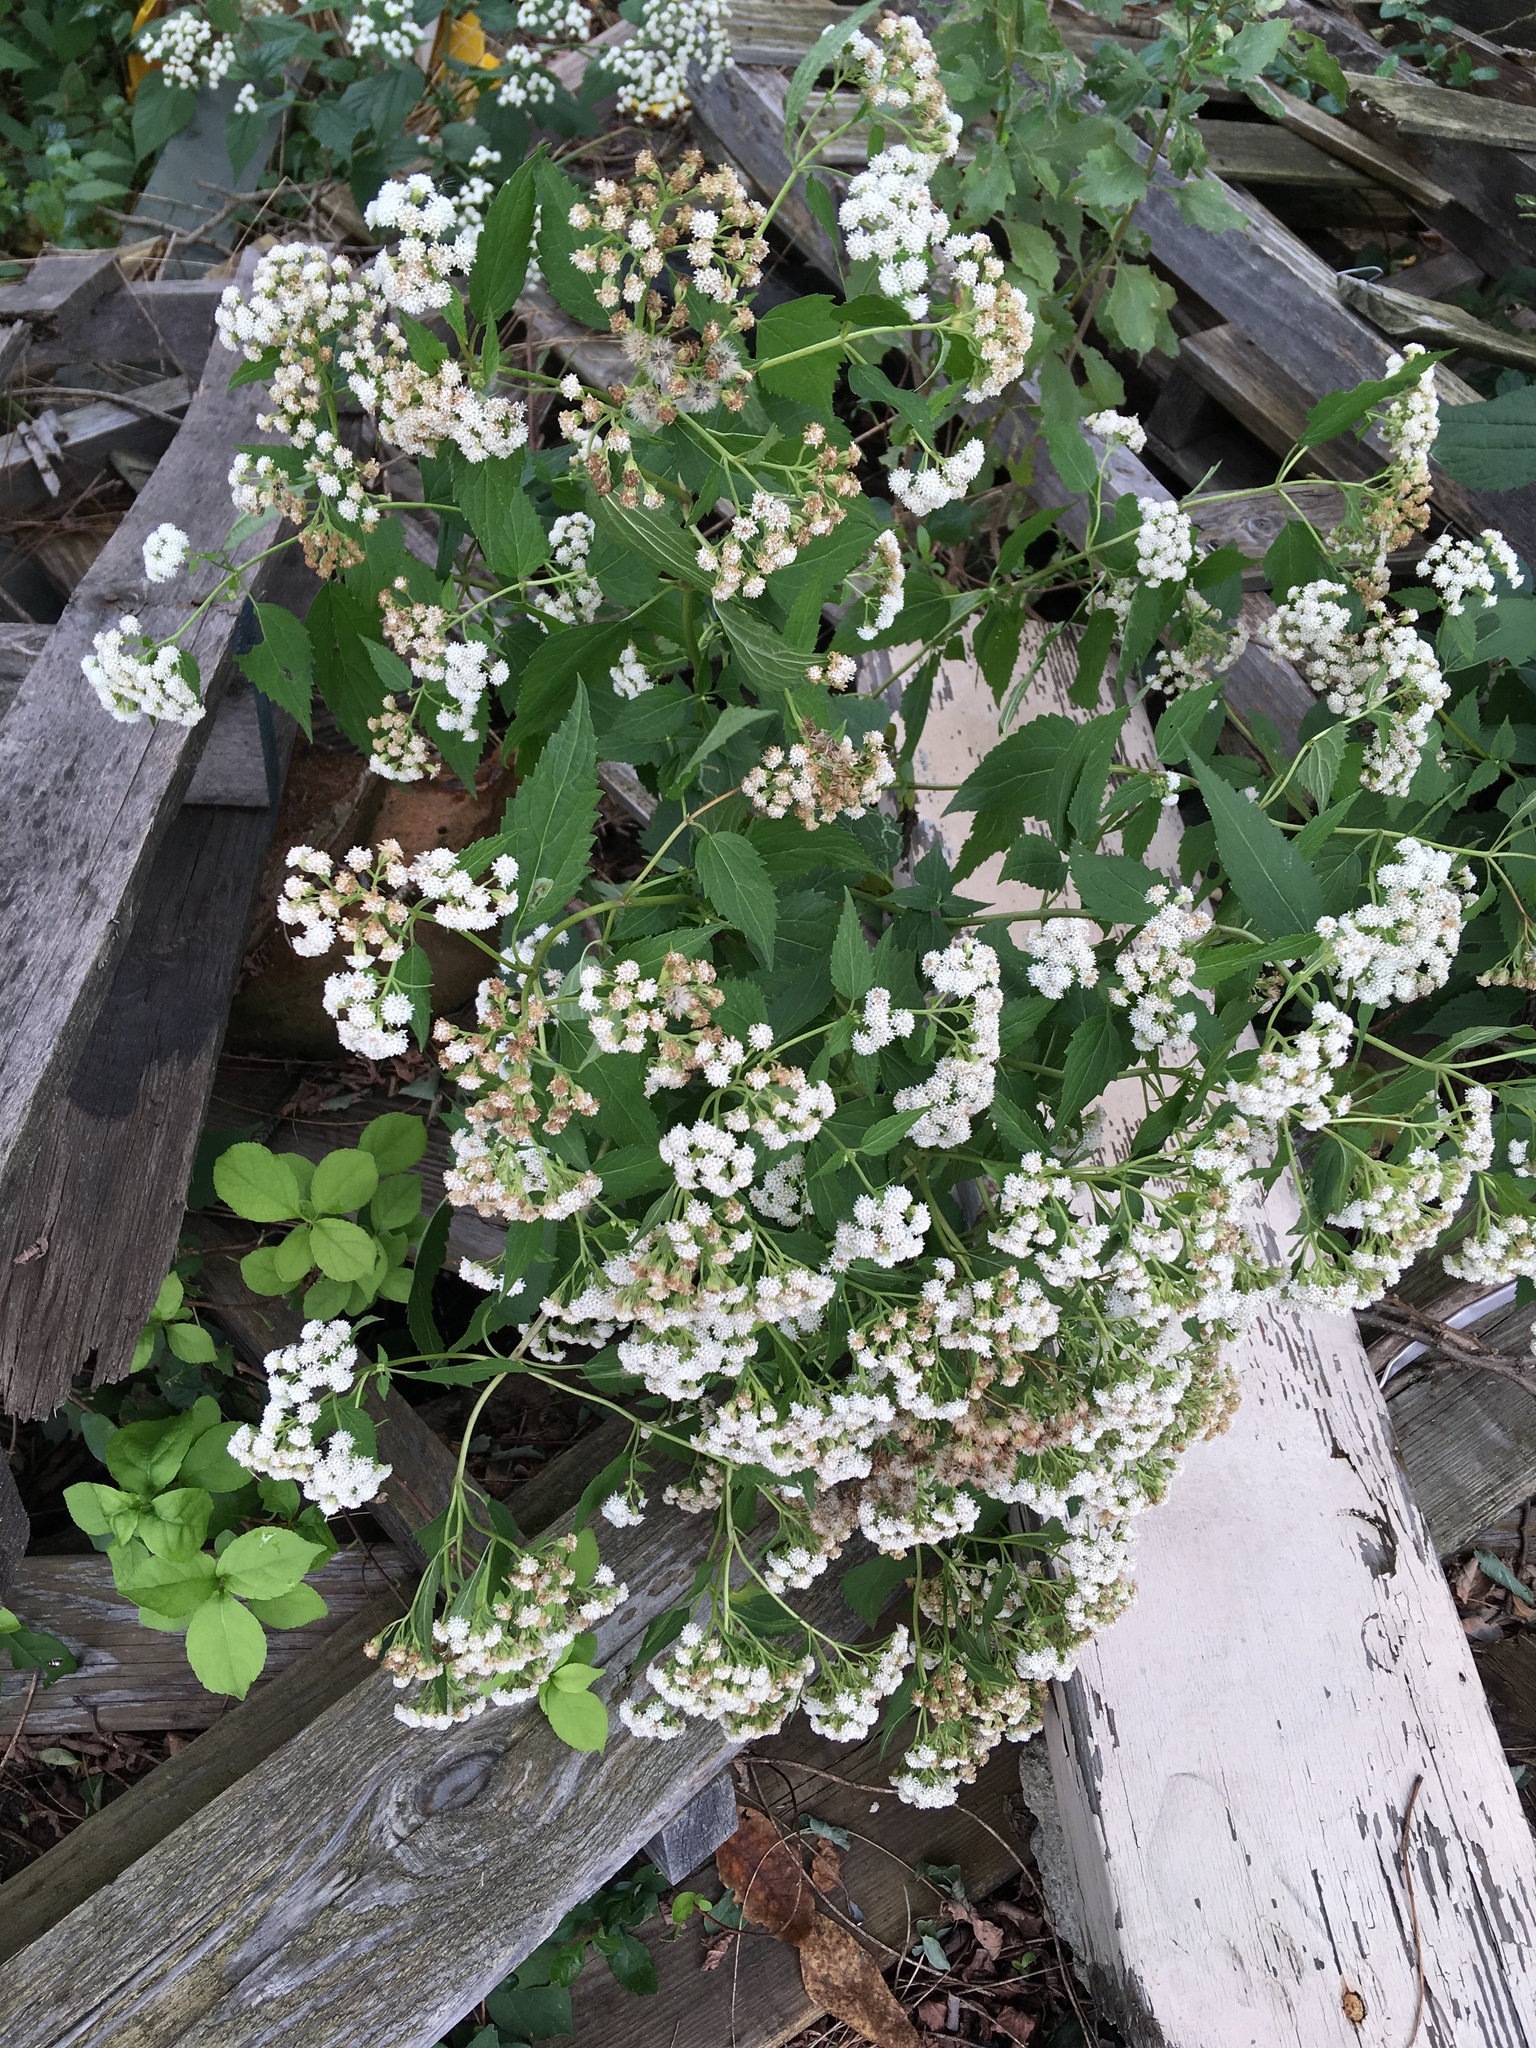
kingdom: Plantae
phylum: Tracheophyta
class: Magnoliopsida
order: Asterales
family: Asteraceae
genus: Ageratina
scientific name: Ageratina altissima
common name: White snakeroot
